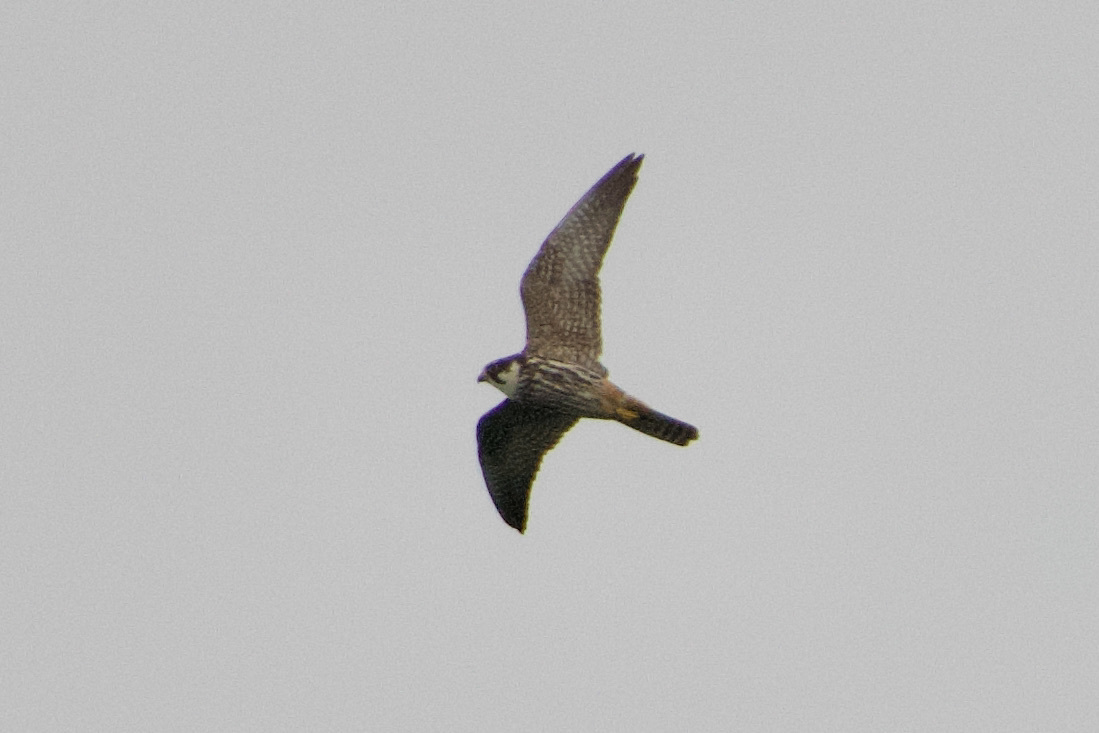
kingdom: Animalia
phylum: Chordata
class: Aves
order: Falconiformes
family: Falconidae
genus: Falco
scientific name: Falco subbuteo
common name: Eurasian hobby
